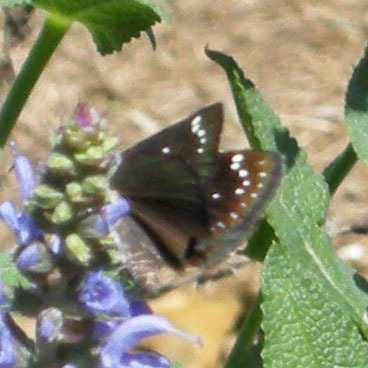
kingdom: Animalia
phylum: Arthropoda
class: Insecta
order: Lepidoptera
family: Hesperiidae
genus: Pholisora
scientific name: Pholisora catullus
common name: Common sootywing
